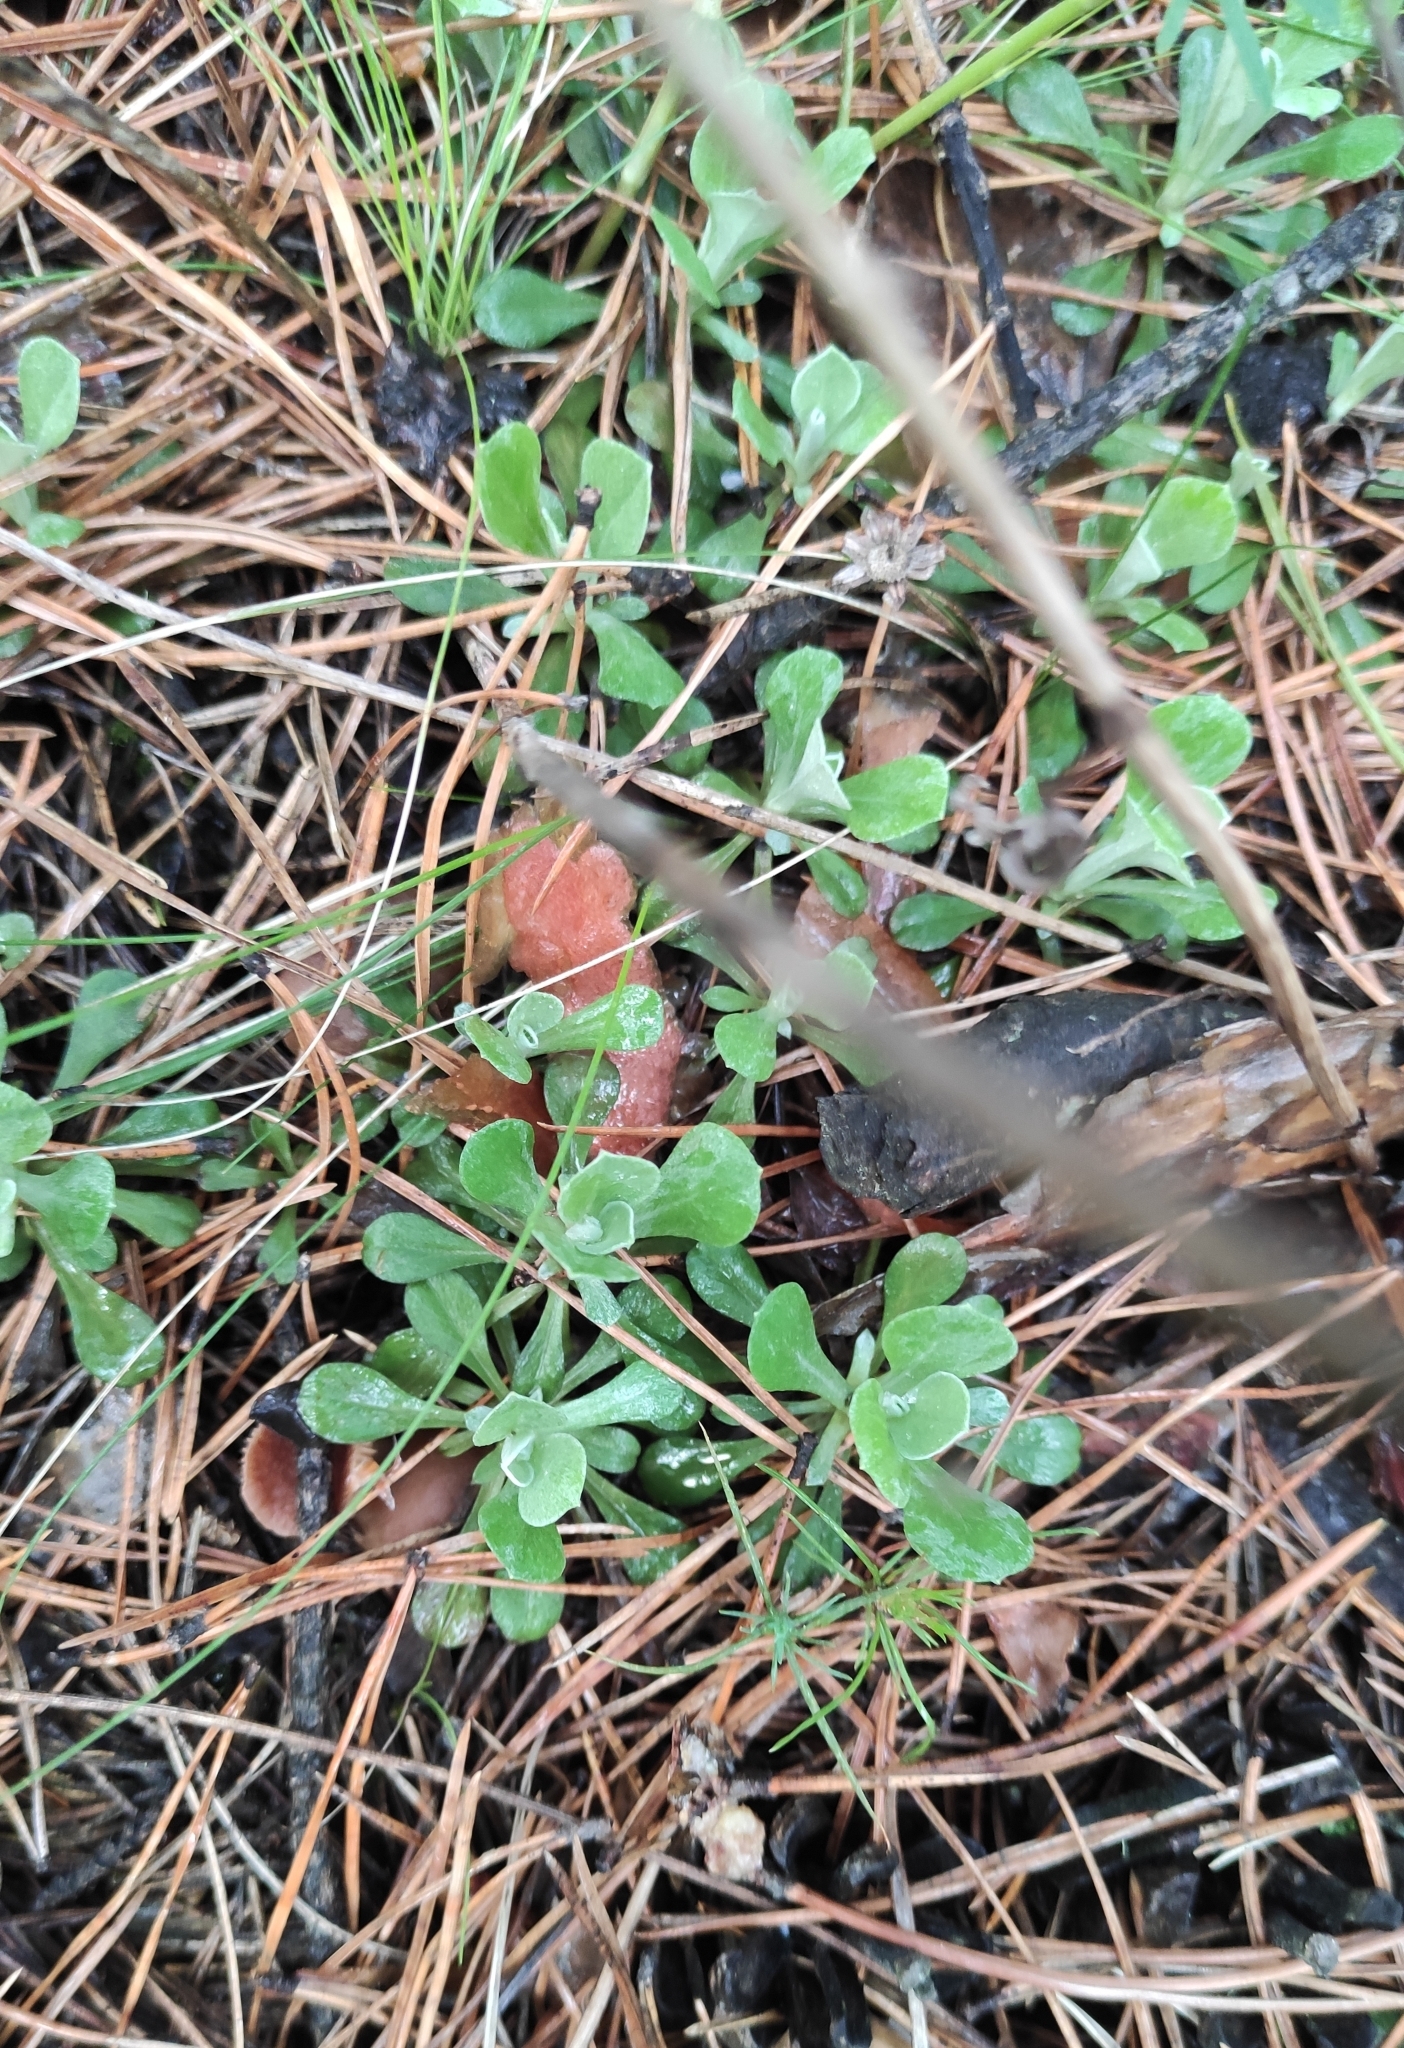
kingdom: Plantae
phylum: Tracheophyta
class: Magnoliopsida
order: Asterales
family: Asteraceae
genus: Antennaria
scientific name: Antennaria dioica
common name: Mountain everlasting
